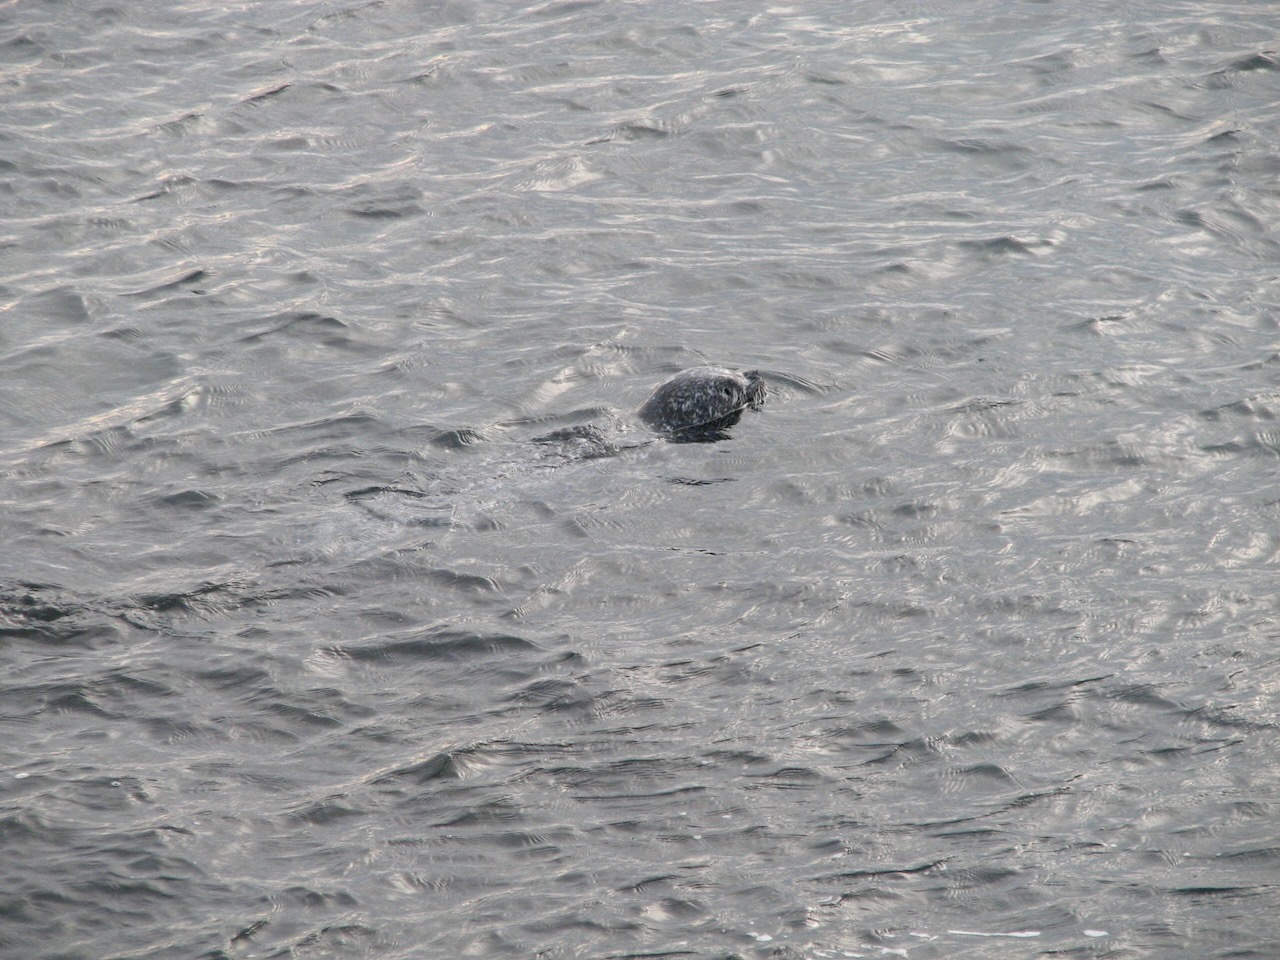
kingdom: Animalia
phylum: Chordata
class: Mammalia
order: Carnivora
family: Phocidae
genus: Phoca
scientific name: Phoca vitulina
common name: Harbor seal
